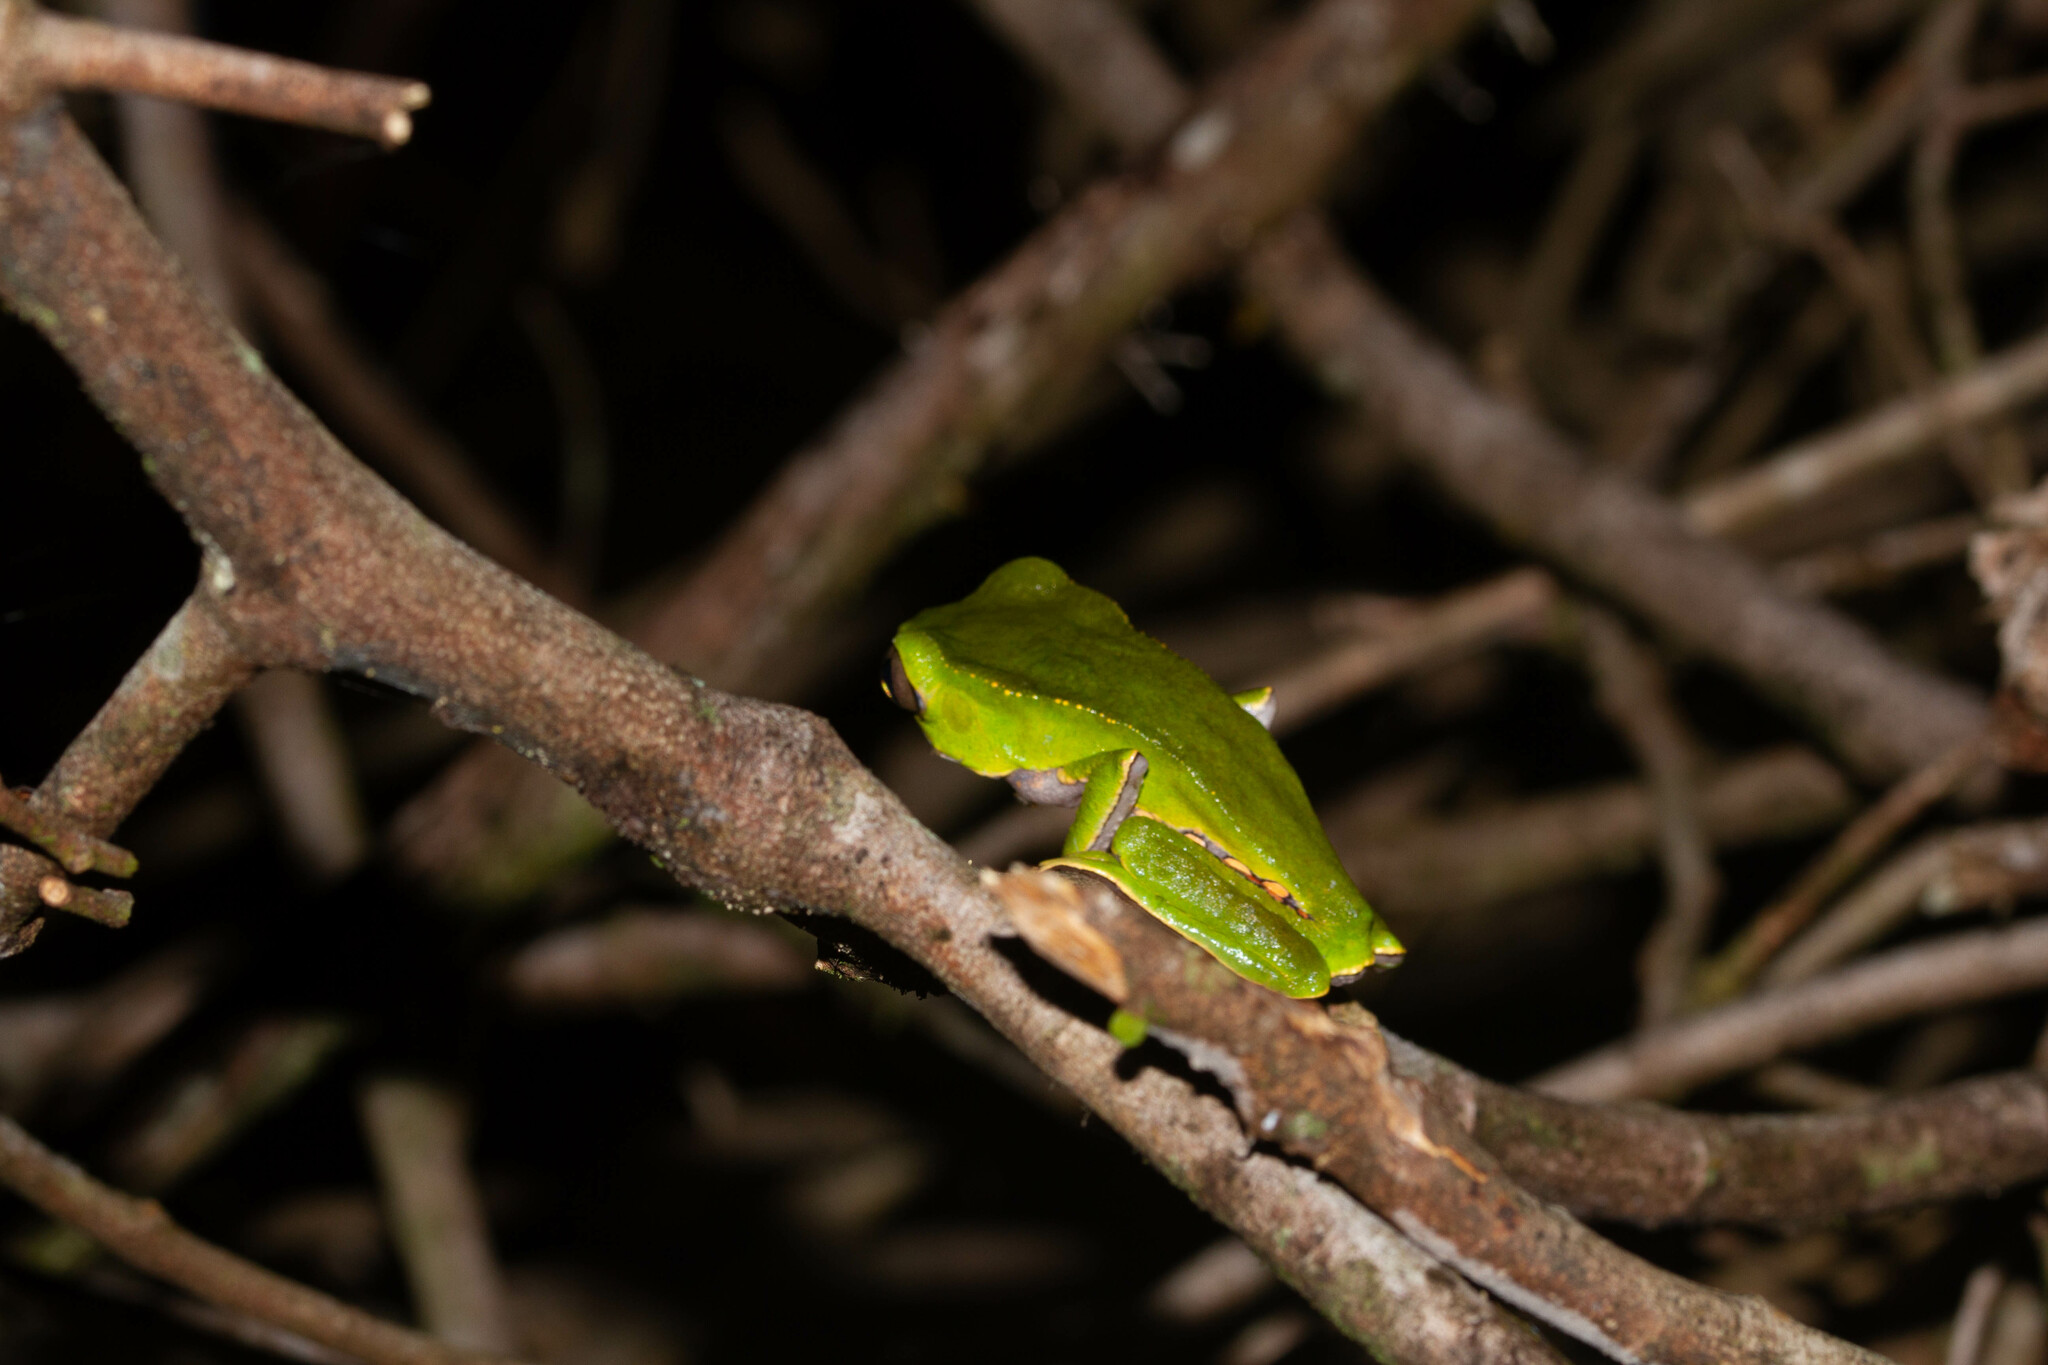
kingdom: Animalia
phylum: Chordata
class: Amphibia
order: Anura
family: Phyllomedusidae
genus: Phyllomedusa
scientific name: Phyllomedusa vaillantii
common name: White-lined leaf frog
